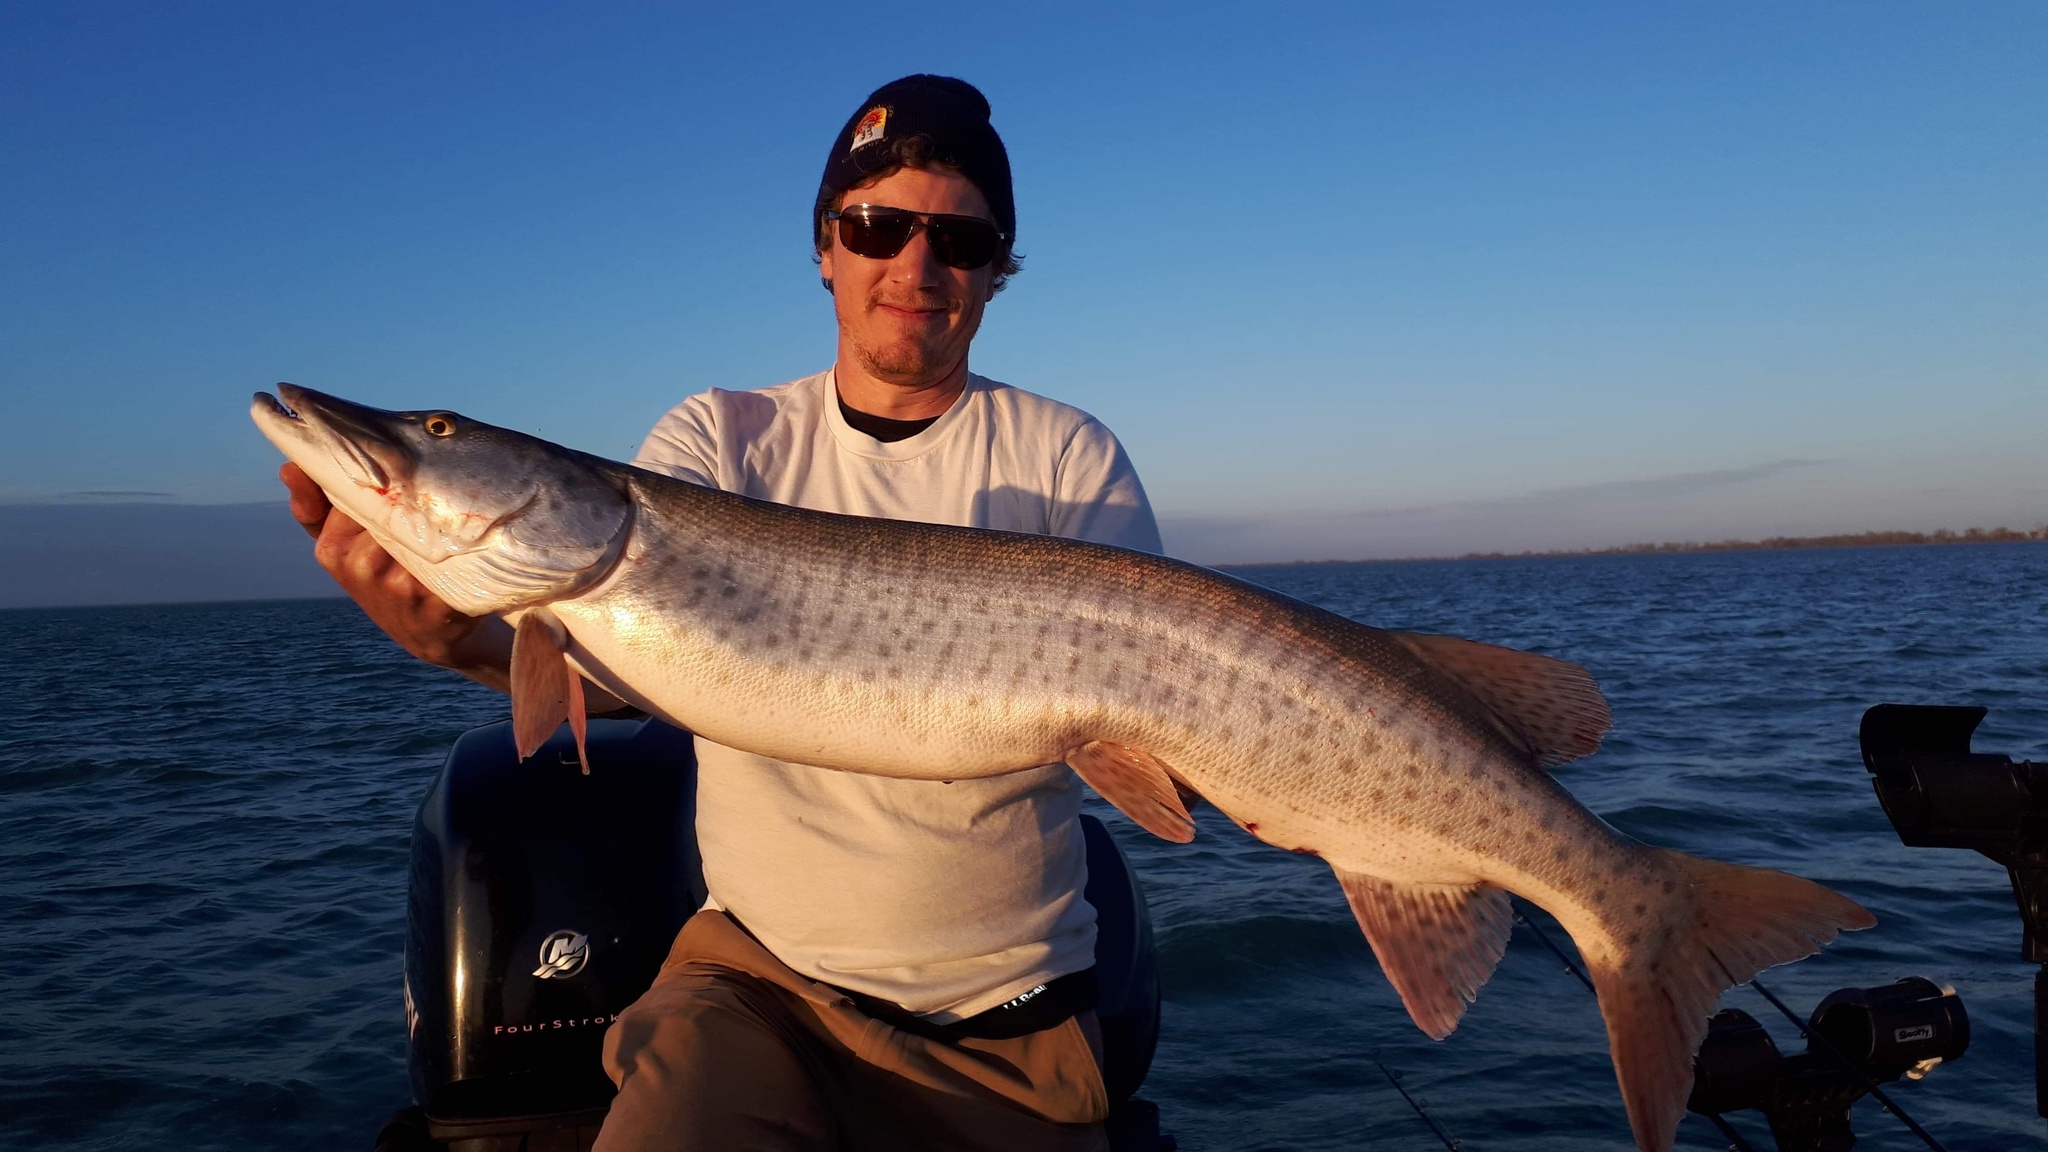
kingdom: Animalia
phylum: Chordata
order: Esociformes
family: Esocidae
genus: Esox
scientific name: Esox masquinongy
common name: Muskellunge
